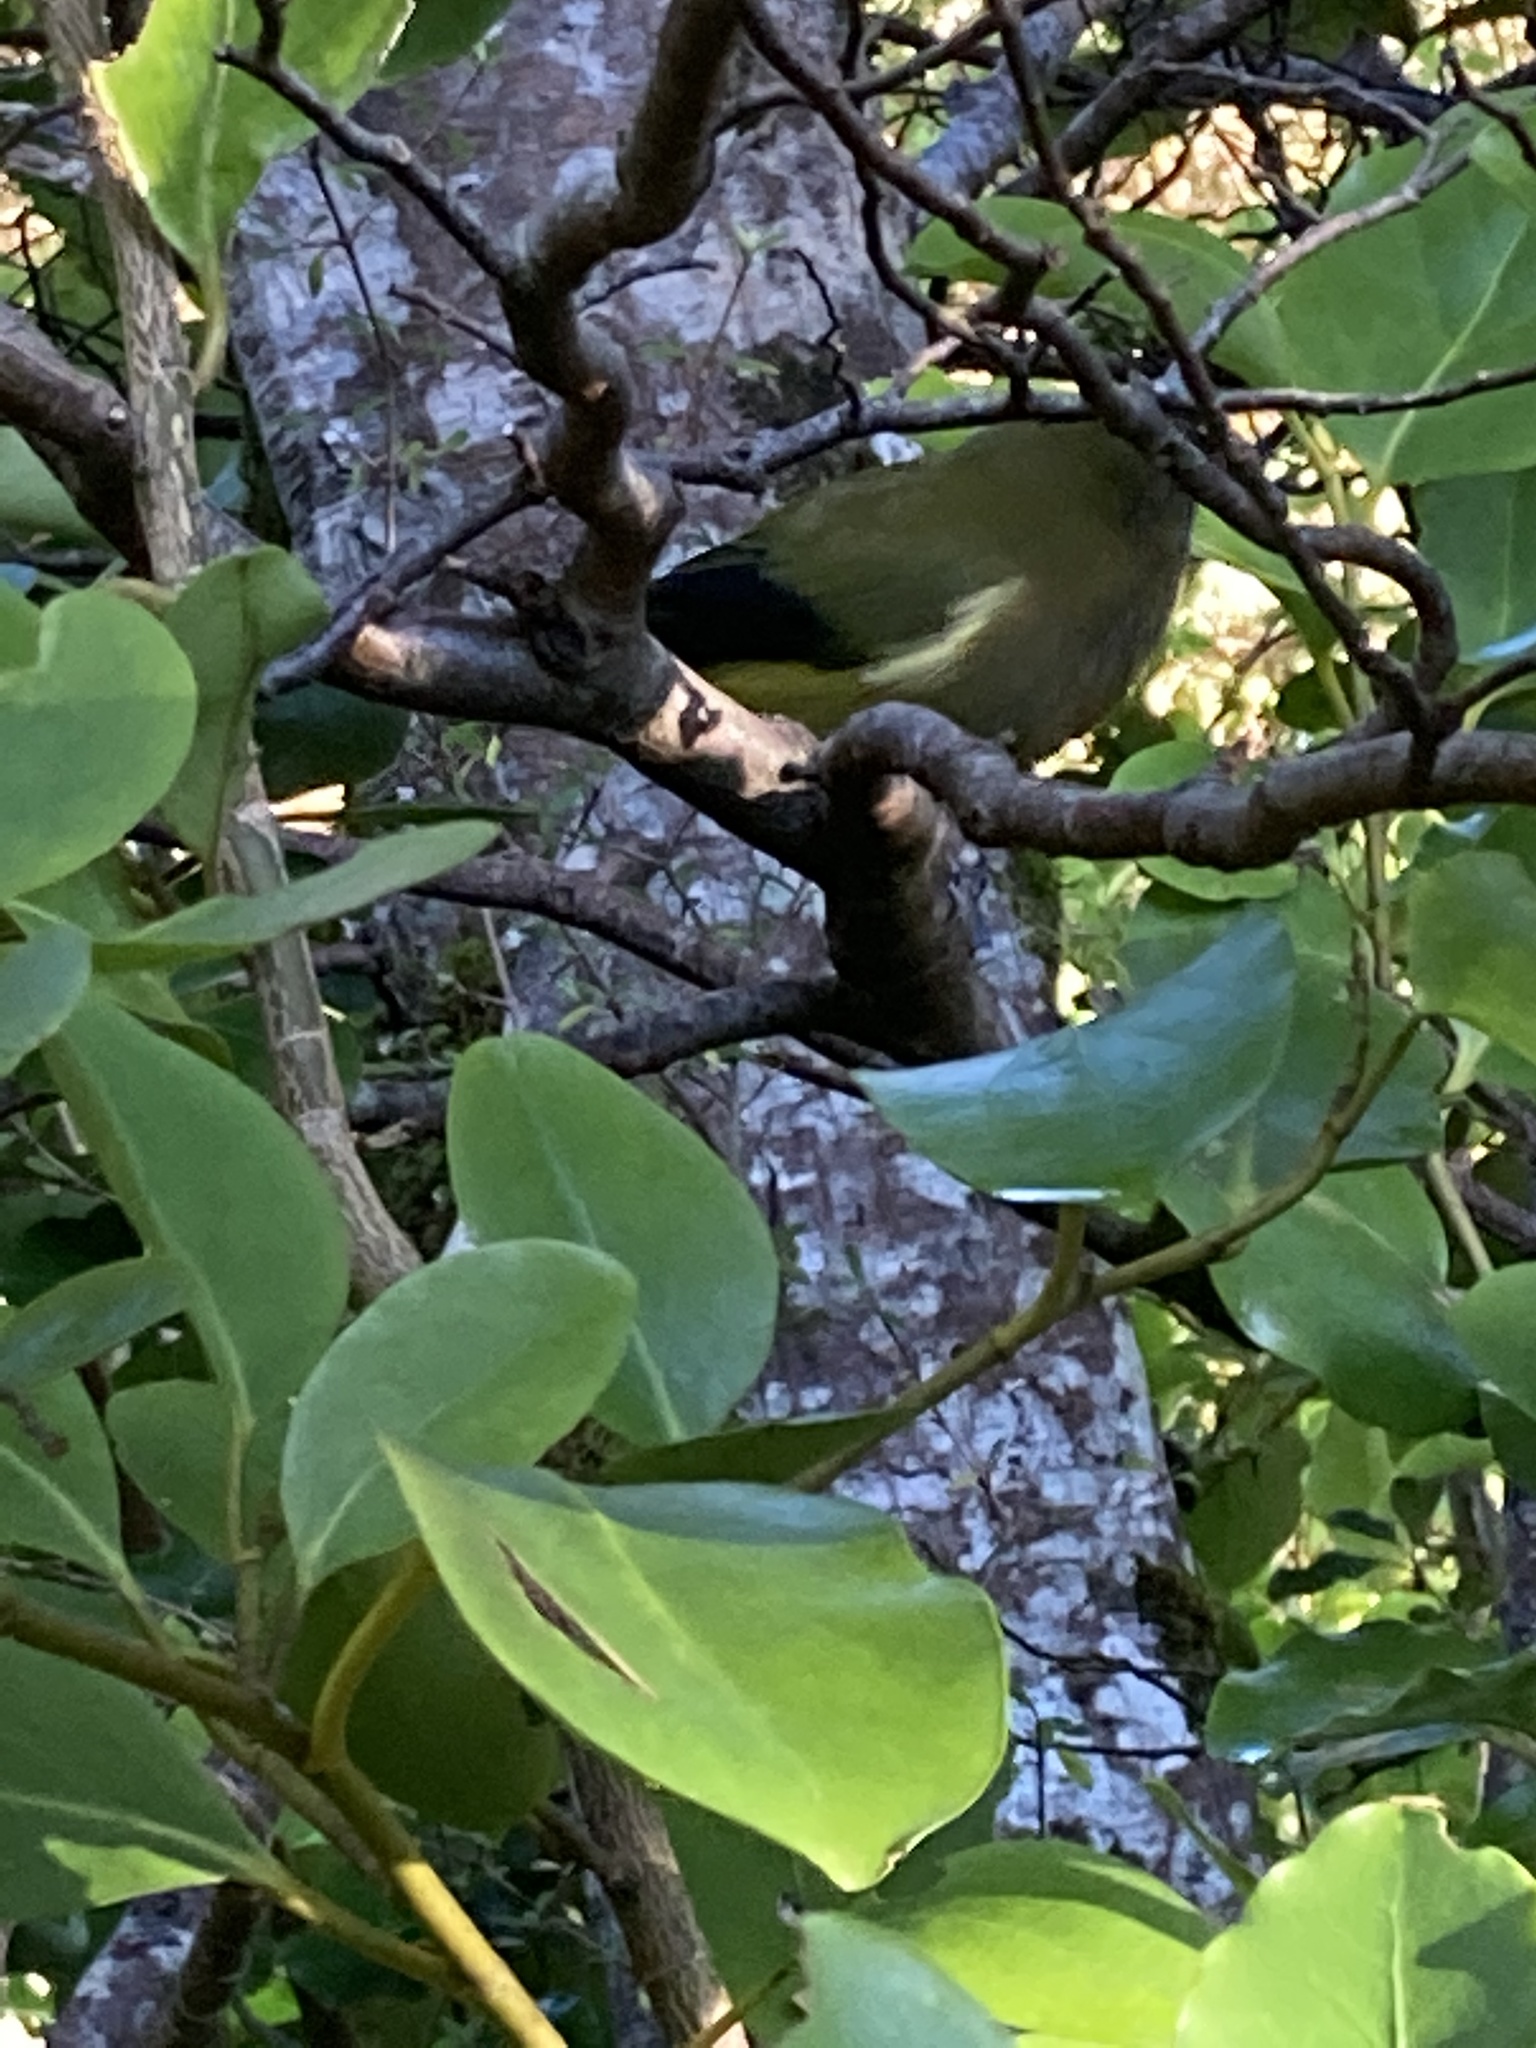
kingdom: Animalia
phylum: Chordata
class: Aves
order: Passeriformes
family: Meliphagidae
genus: Anthornis
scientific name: Anthornis melanura
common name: New zealand bellbird
